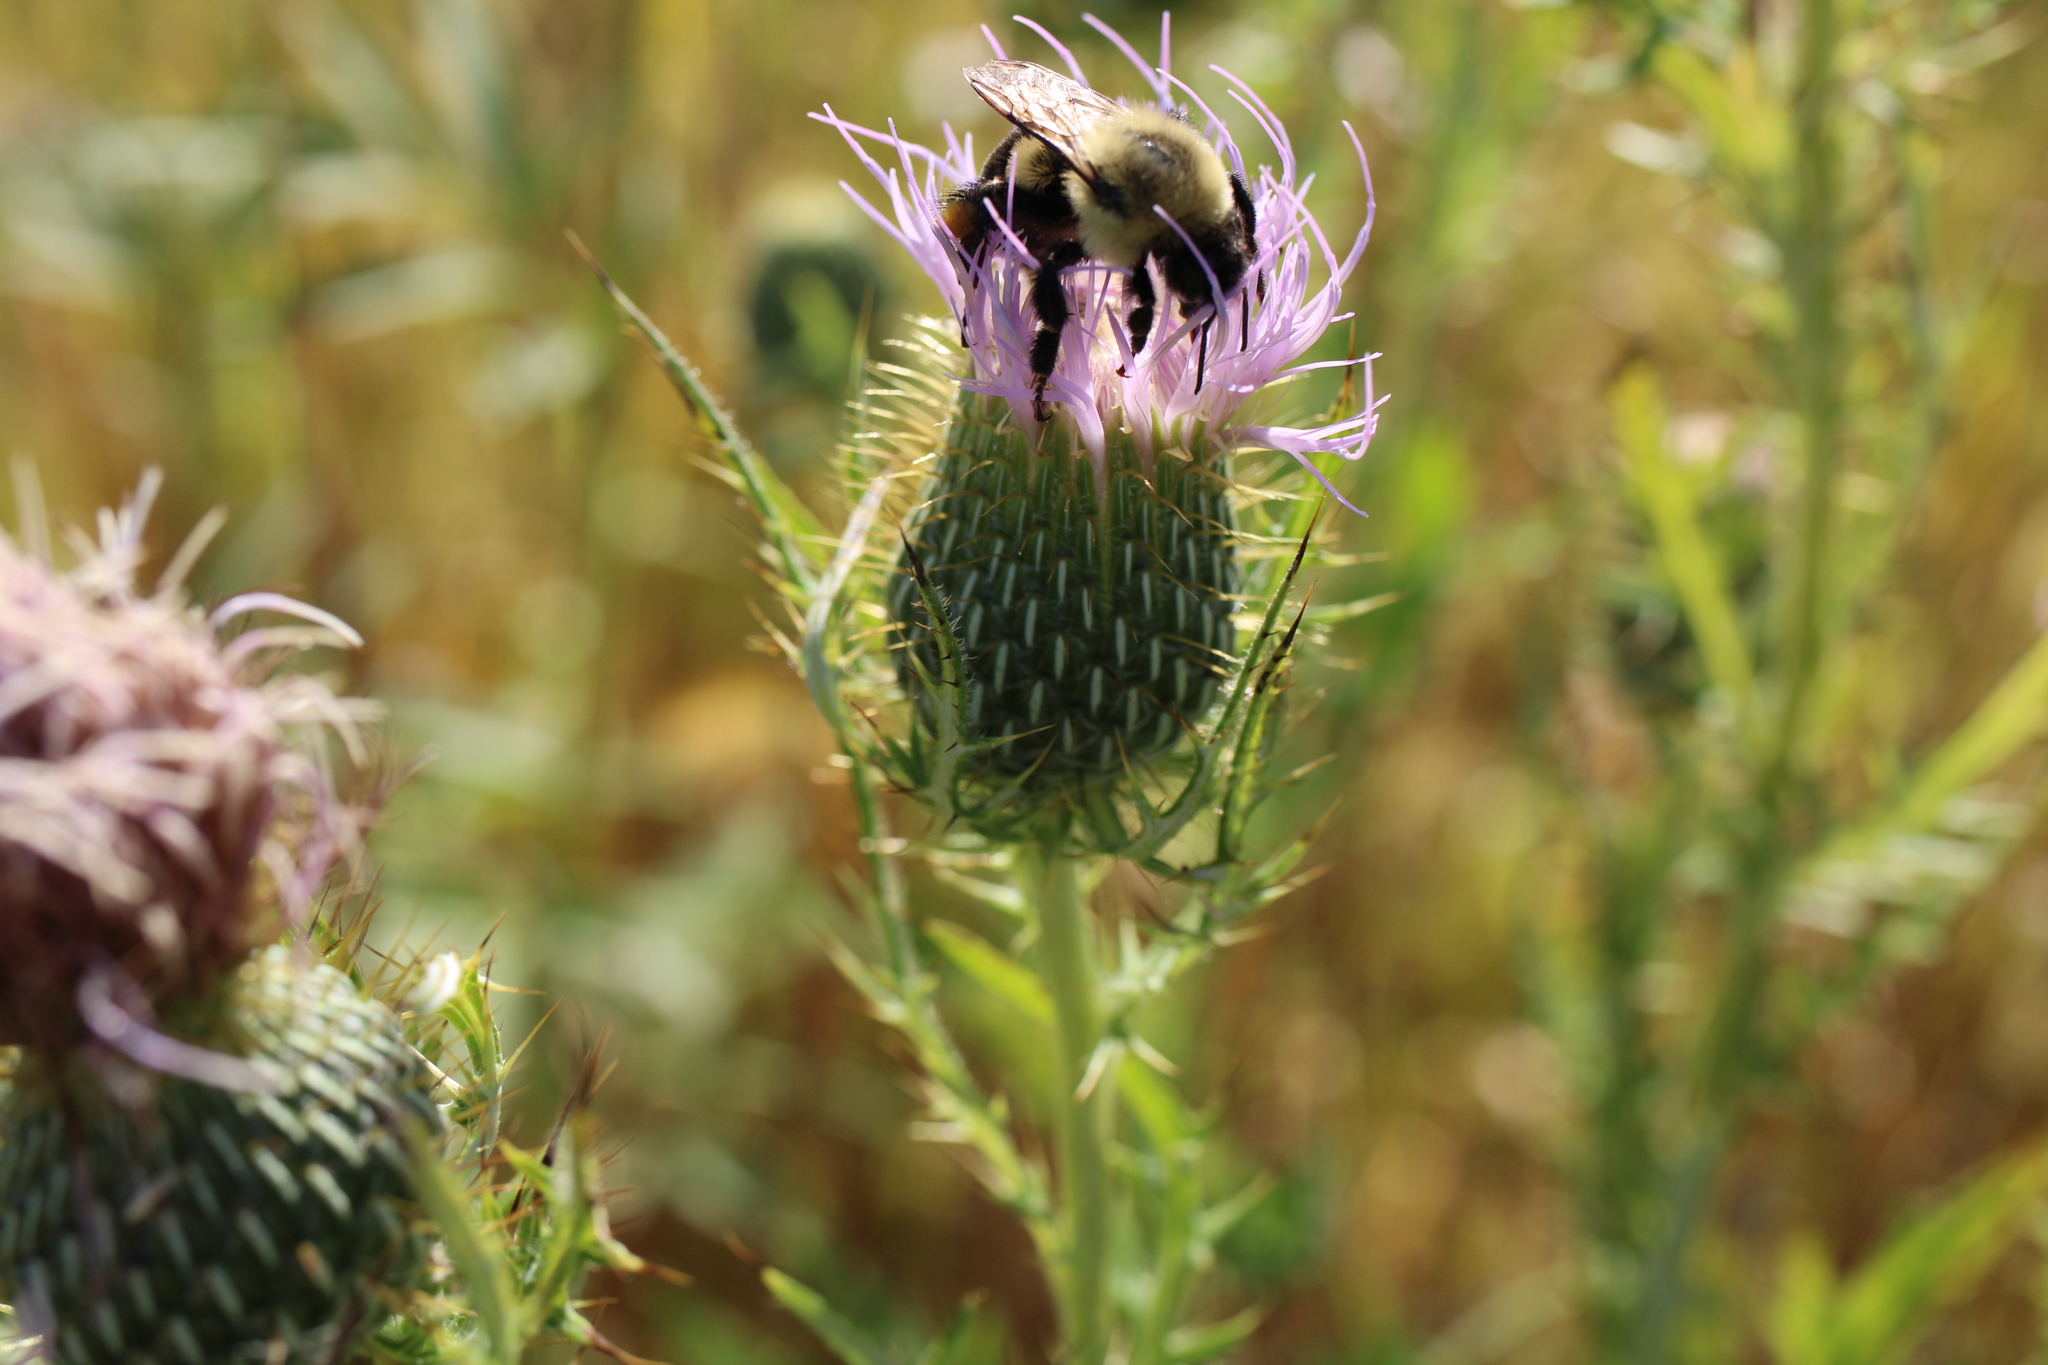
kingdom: Animalia
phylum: Arthropoda
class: Insecta
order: Hymenoptera
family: Apidae
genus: Bombus
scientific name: Bombus impatiens
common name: Common eastern bumble bee
